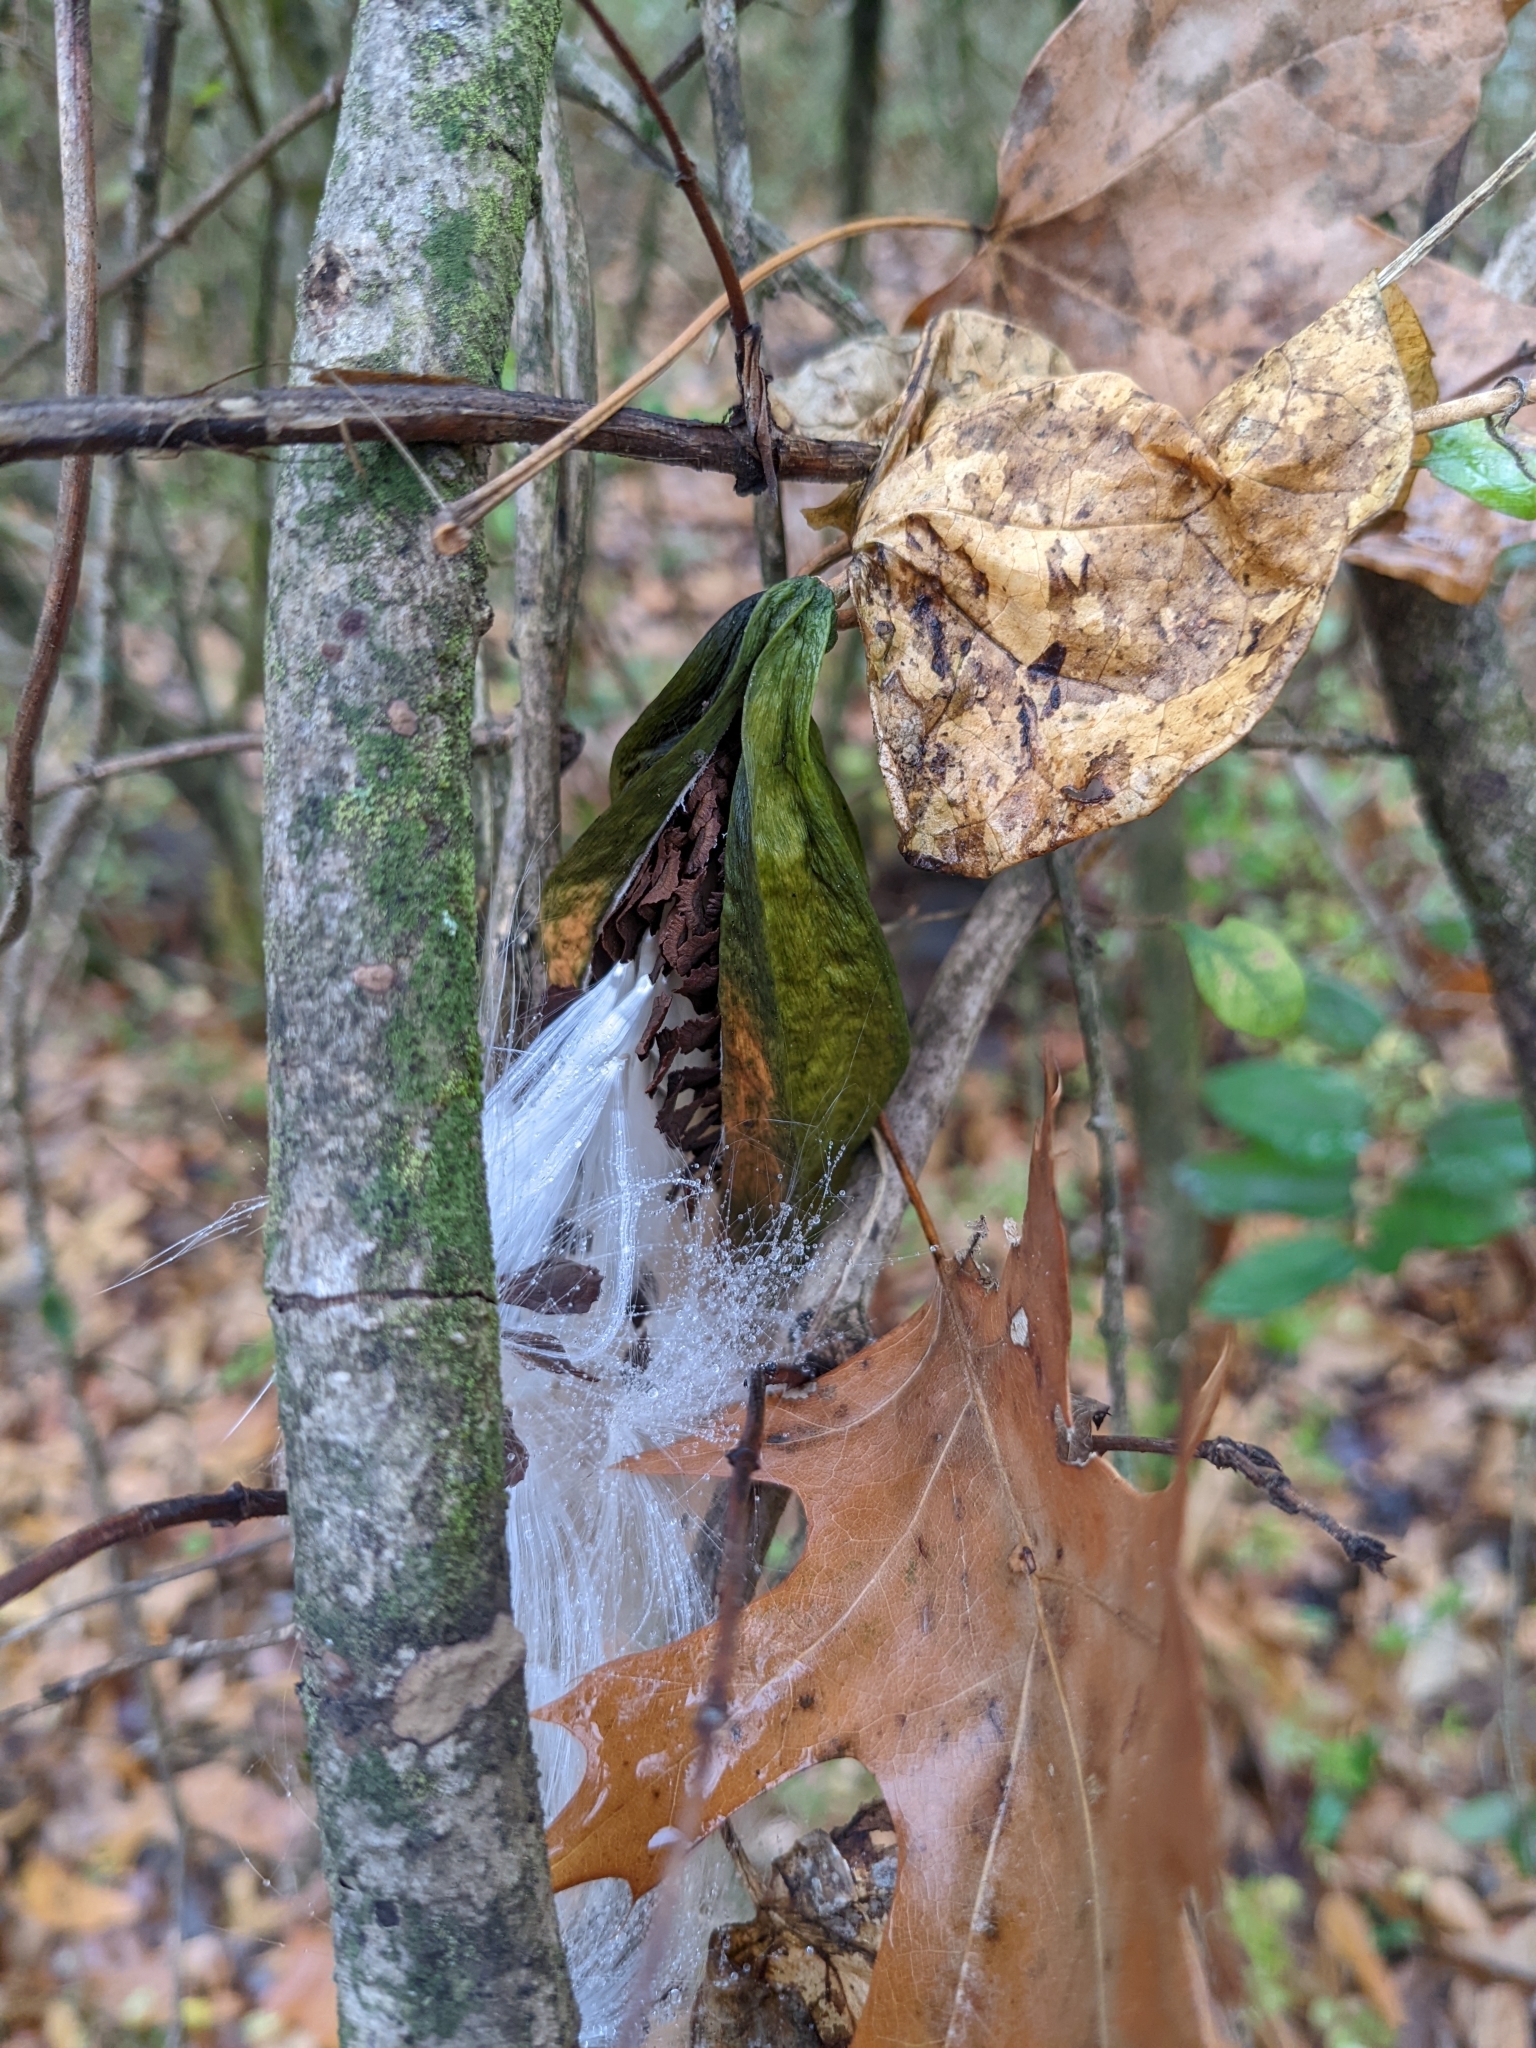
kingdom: Plantae
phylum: Tracheophyta
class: Magnoliopsida
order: Gentianales
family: Apocynaceae
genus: Gonolobus
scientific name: Gonolobus suberosus
